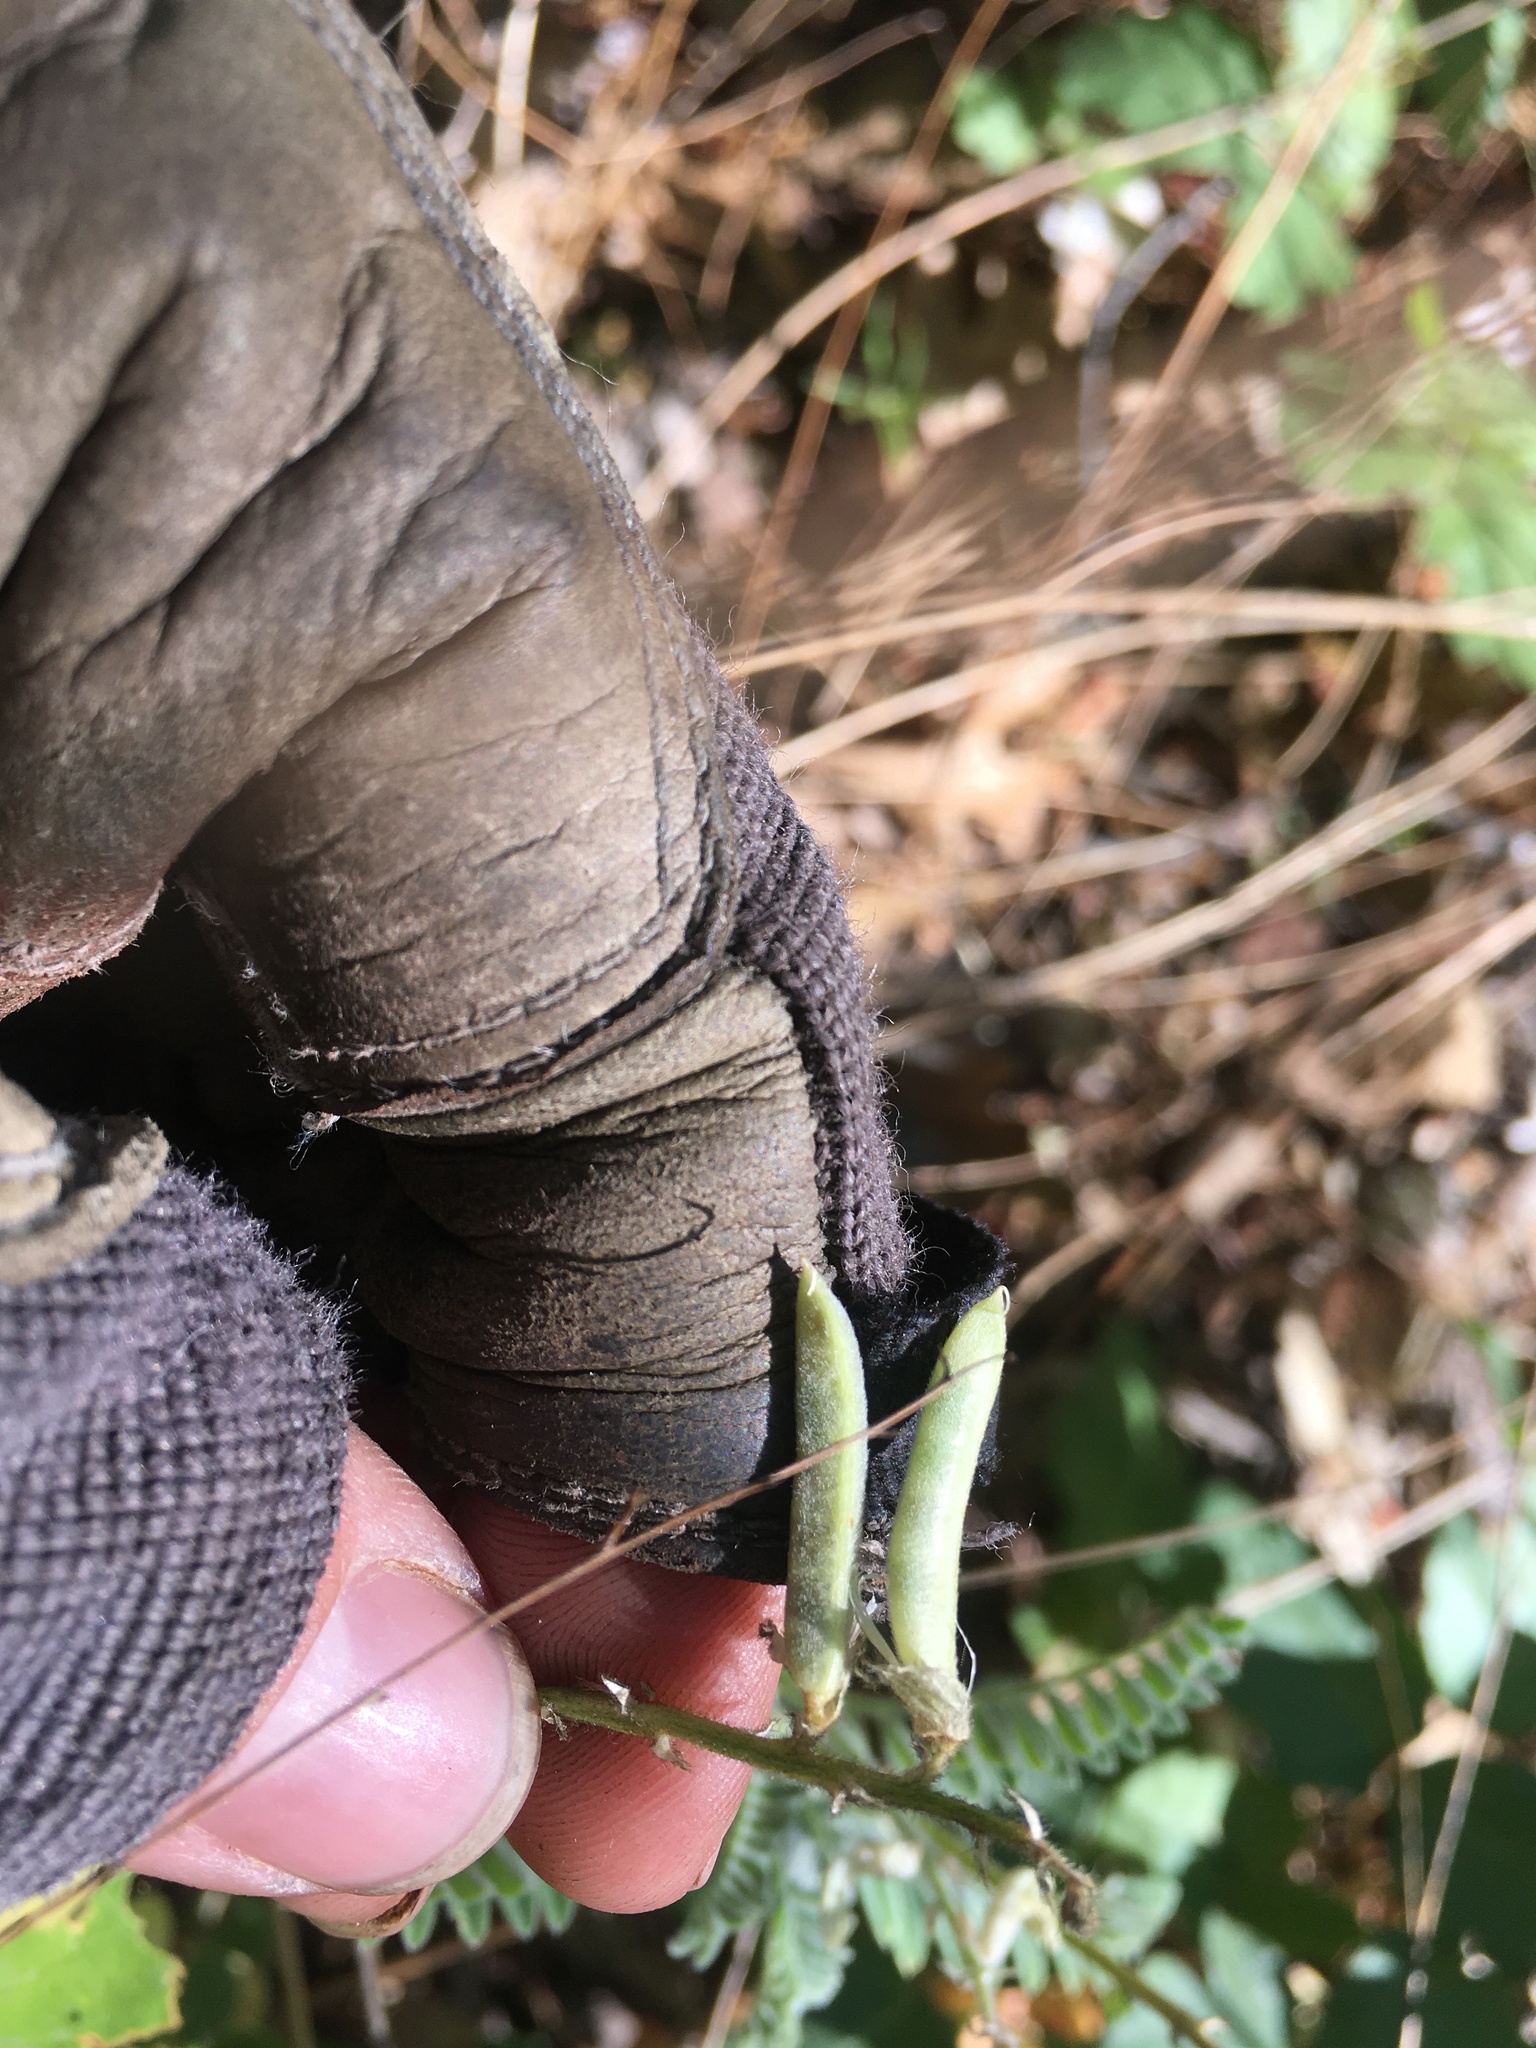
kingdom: Plantae
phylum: Tracheophyta
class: Magnoliopsida
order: Fabales
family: Fabaceae
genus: Astragalus
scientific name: Astragalus congdonii
